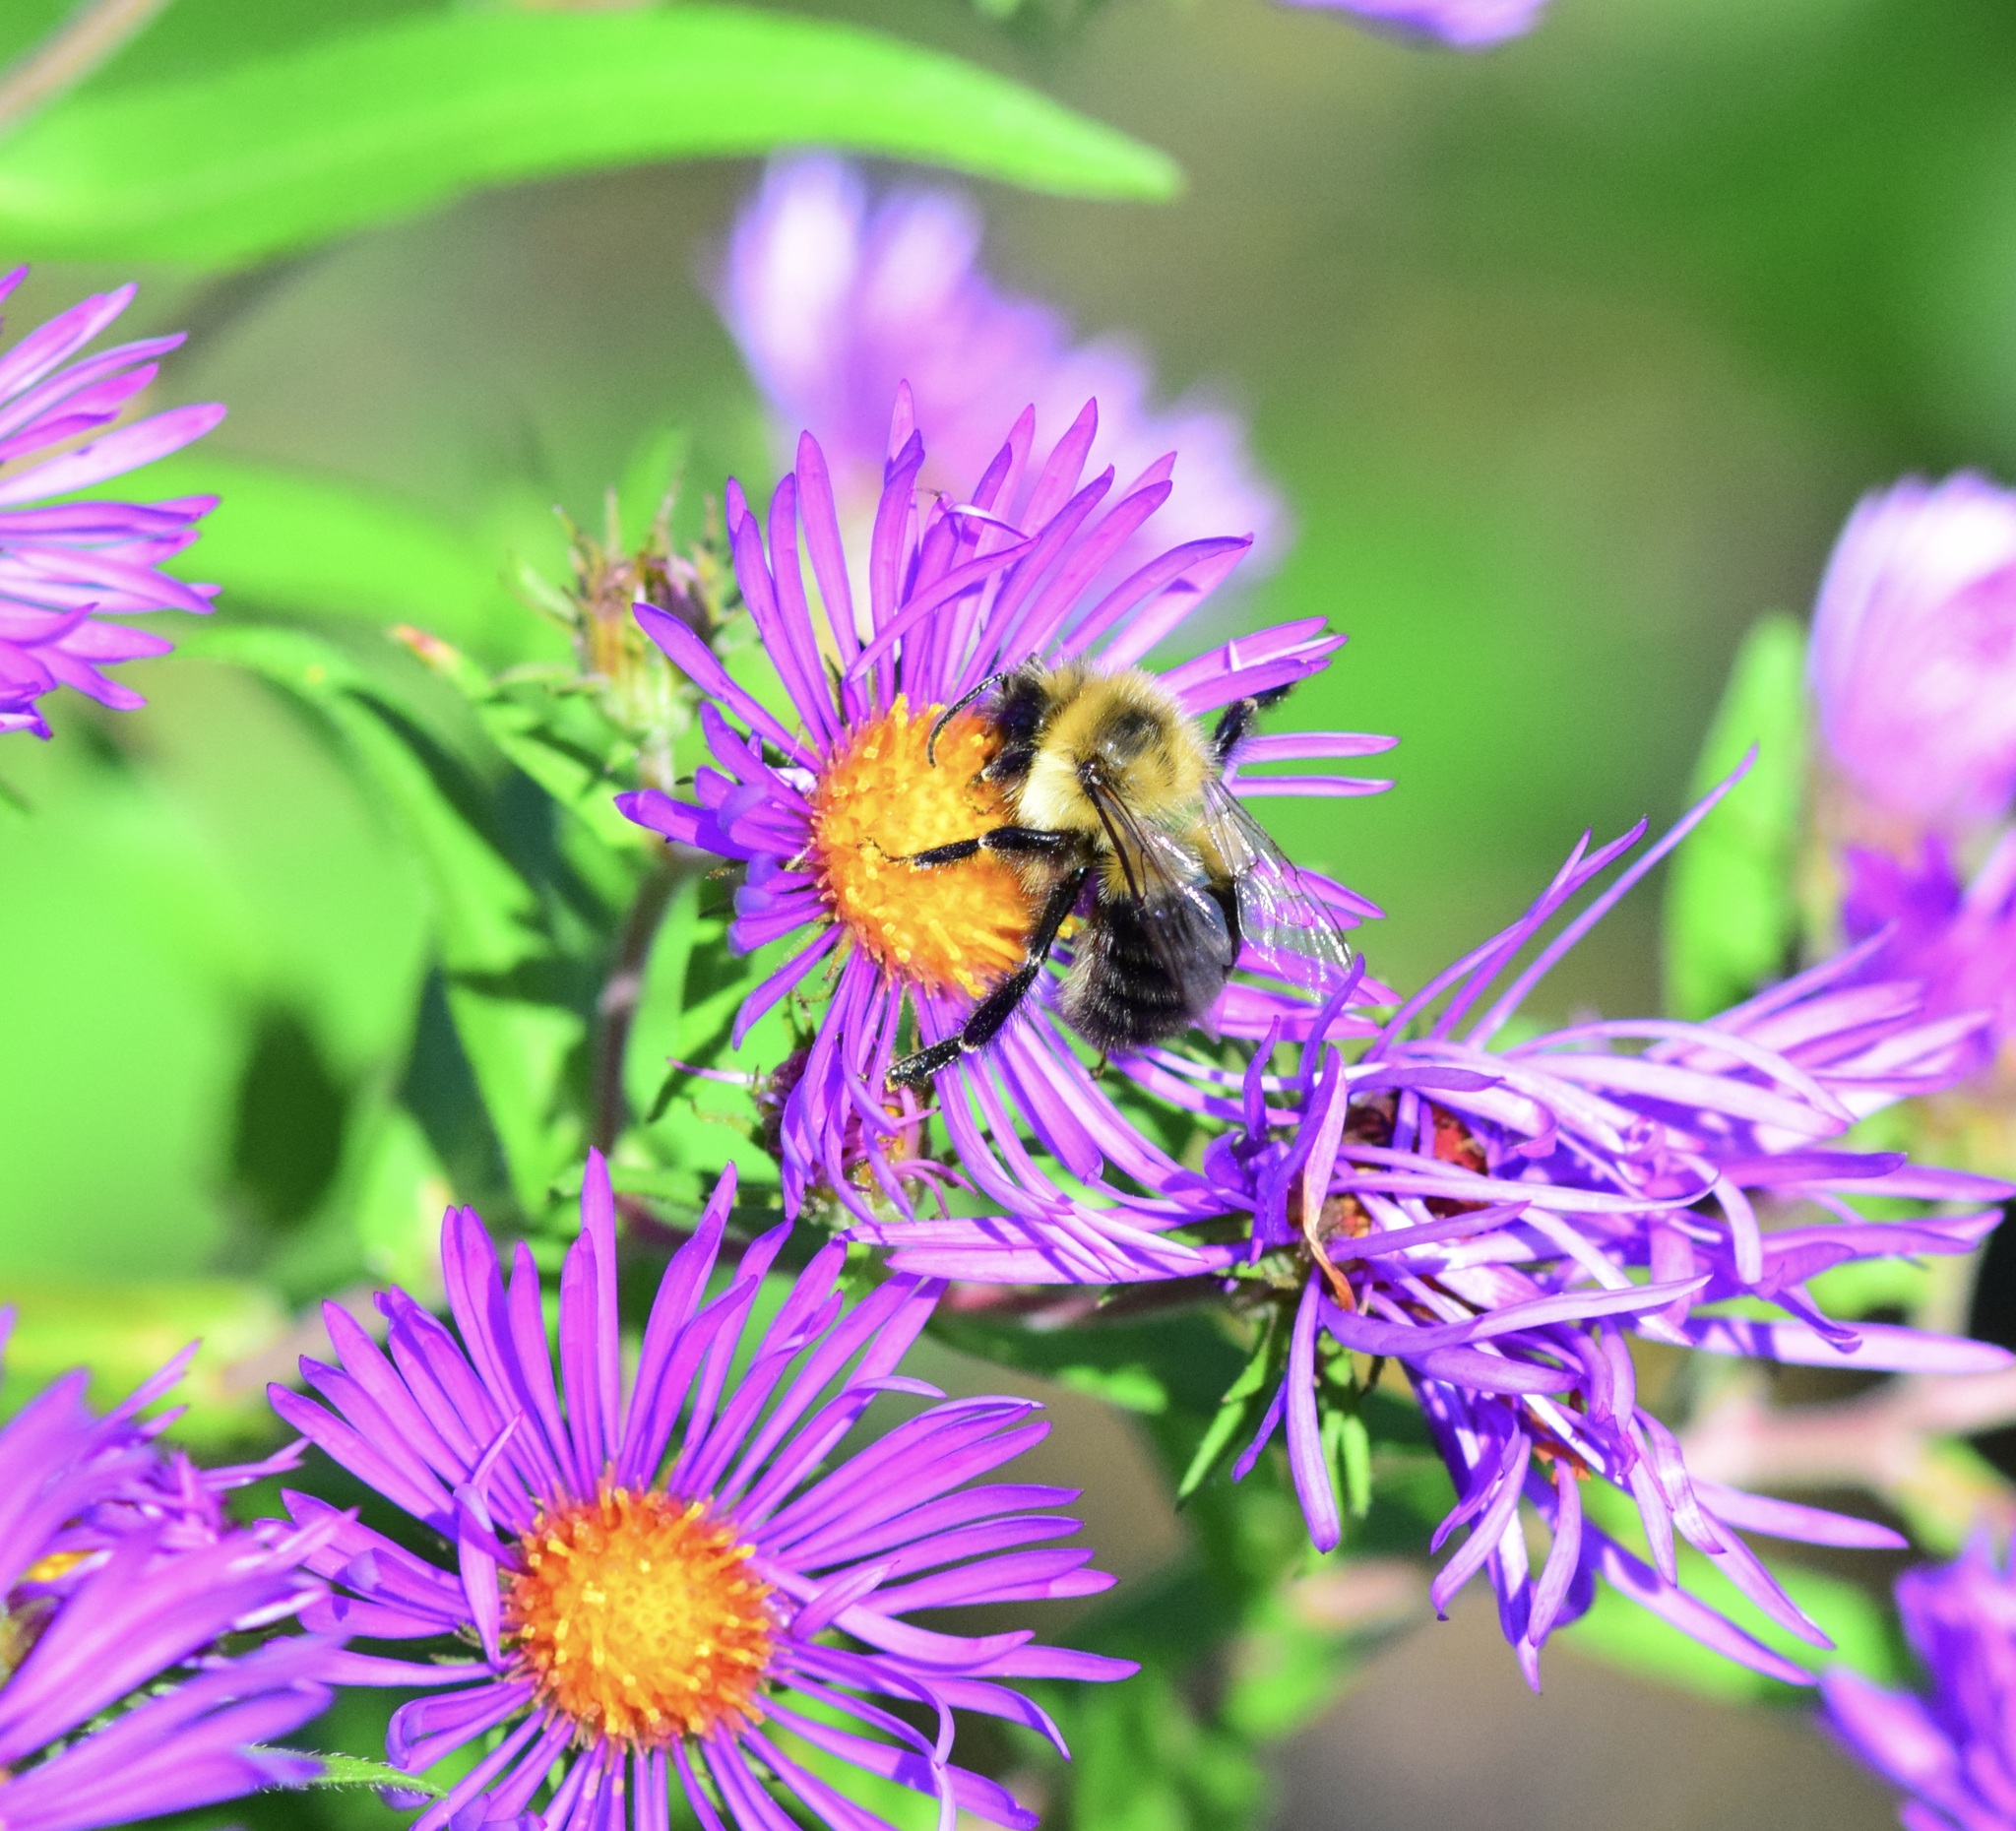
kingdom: Animalia
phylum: Arthropoda
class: Insecta
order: Hymenoptera
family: Apidae
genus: Bombus
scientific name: Bombus impatiens
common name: Common eastern bumble bee
